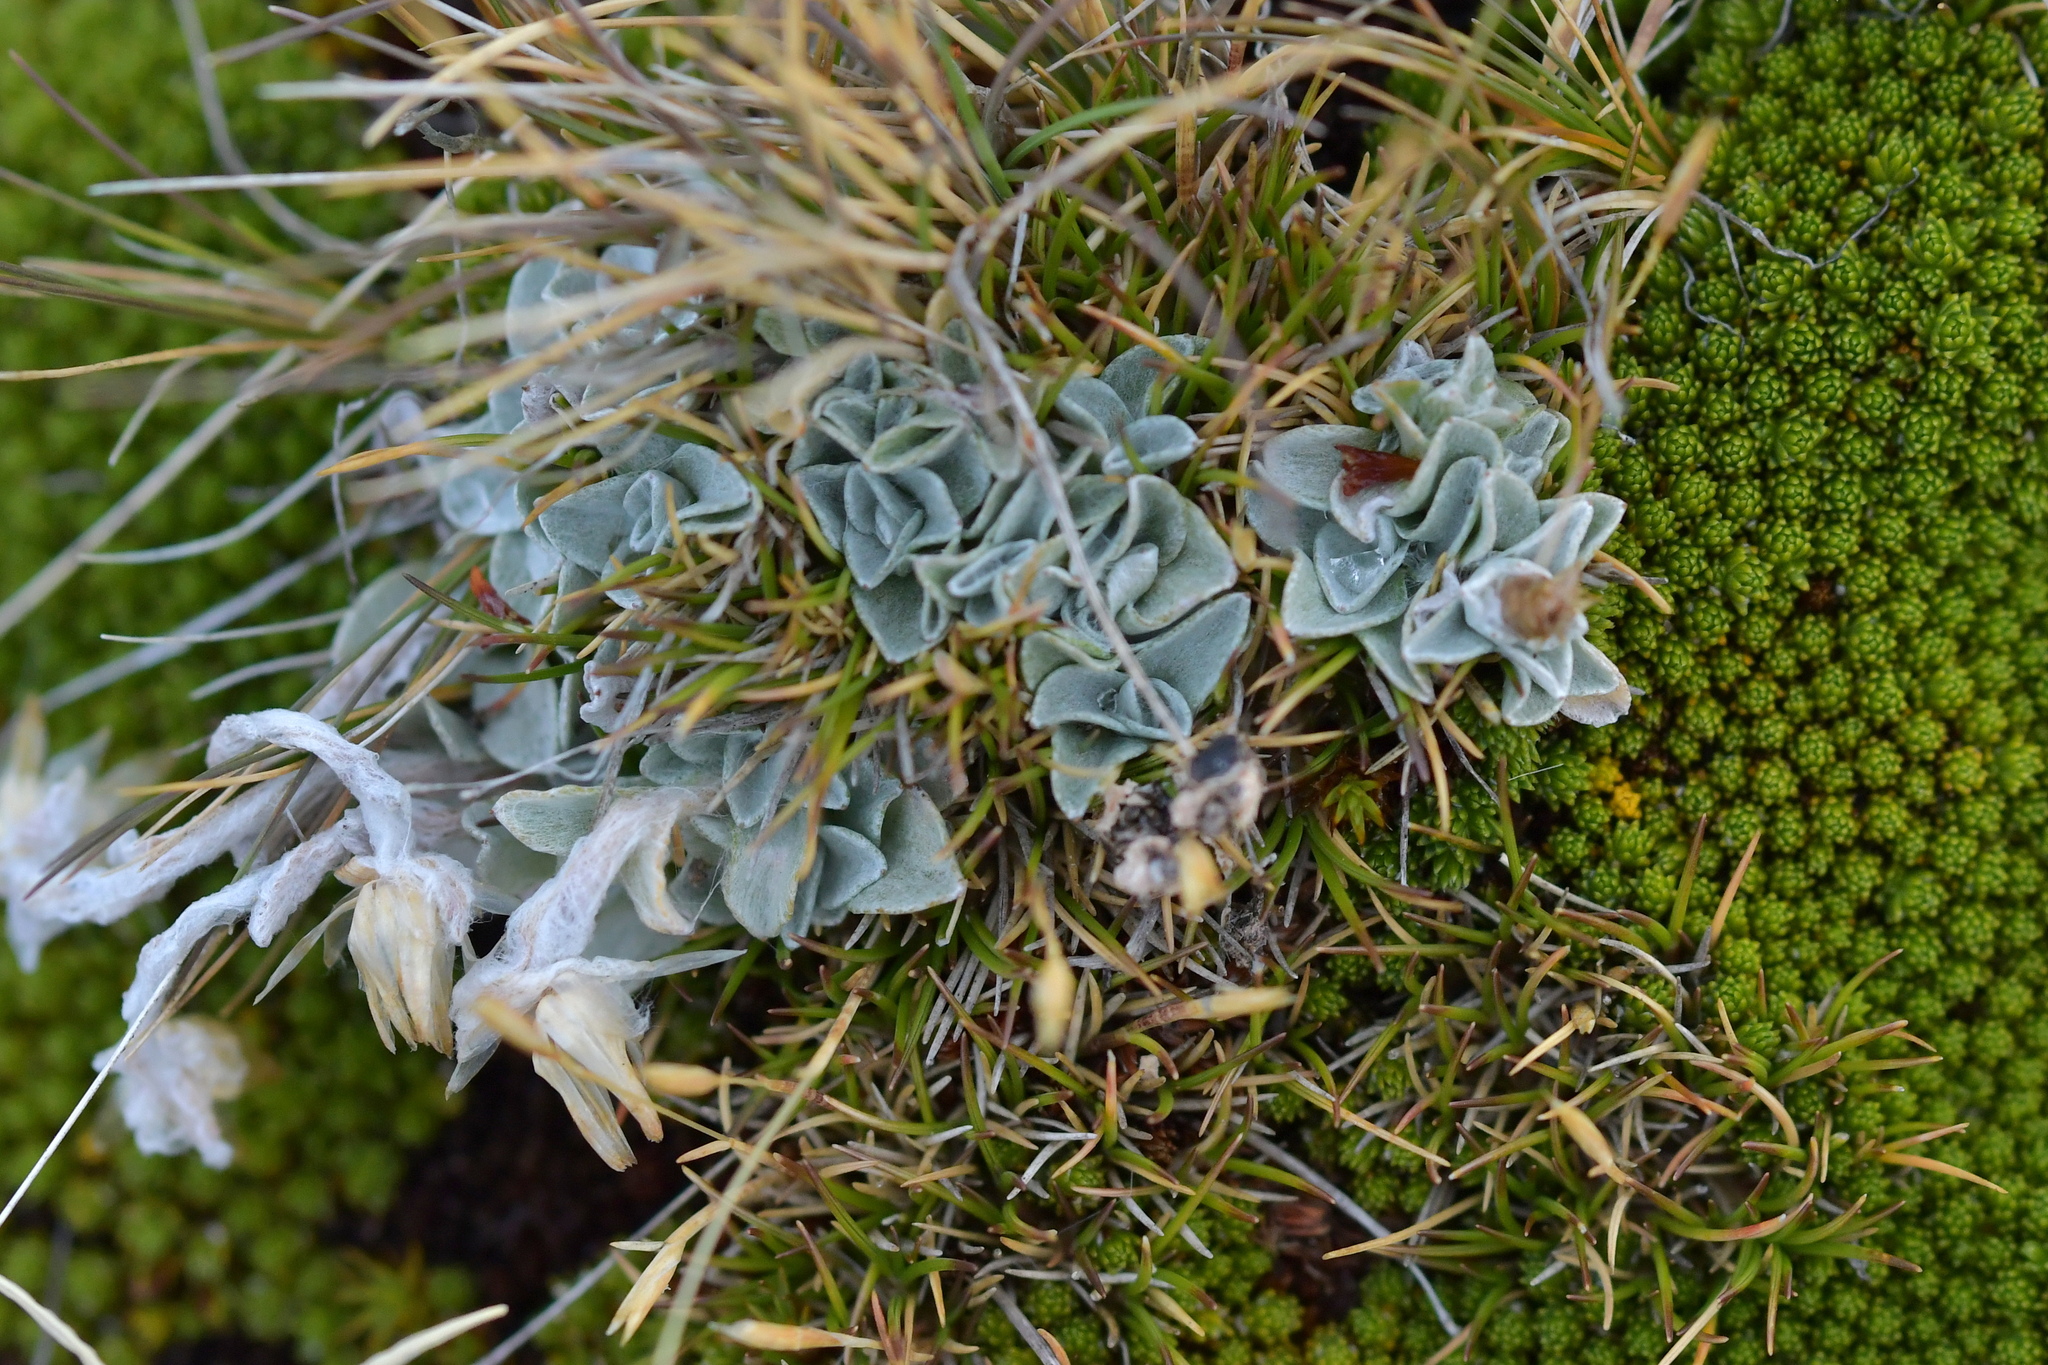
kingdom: Plantae
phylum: Tracheophyta
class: Magnoliopsida
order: Asterales
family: Asteraceae
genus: Argyrotegium
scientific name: Argyrotegium mackayi
